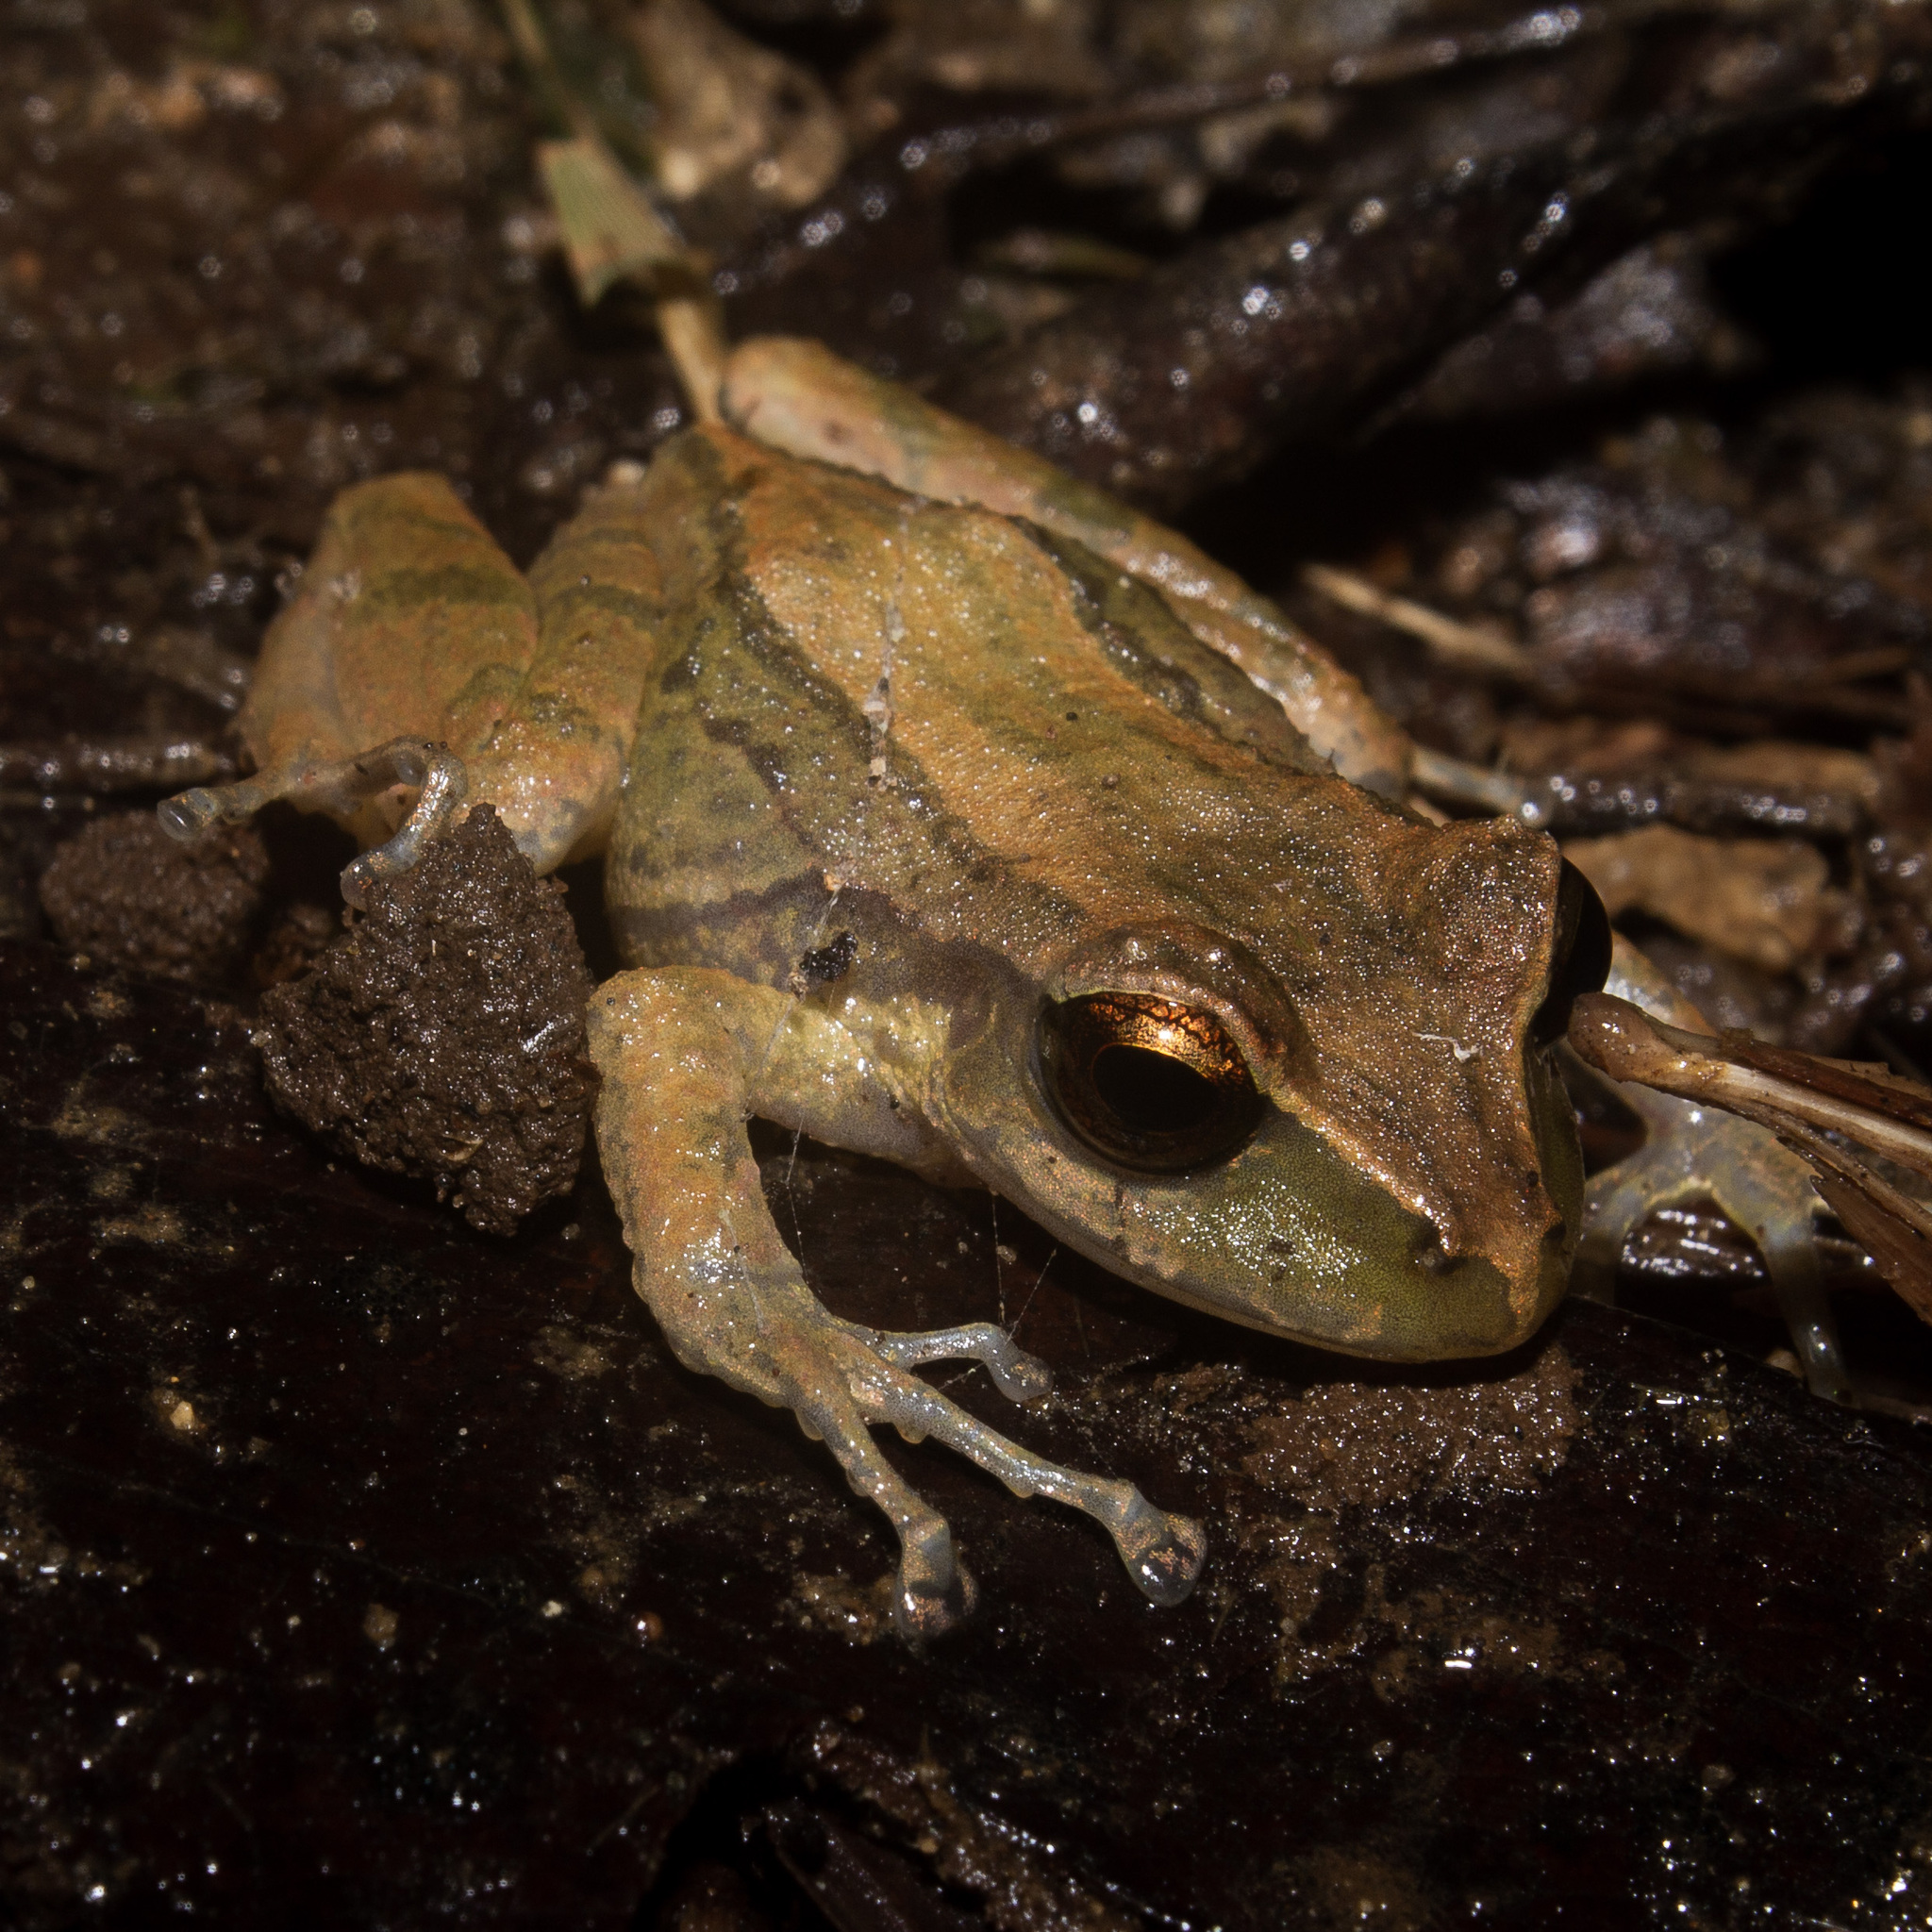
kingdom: Animalia
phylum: Chordata
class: Amphibia
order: Anura
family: Craugastoridae
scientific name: Craugastoridae
